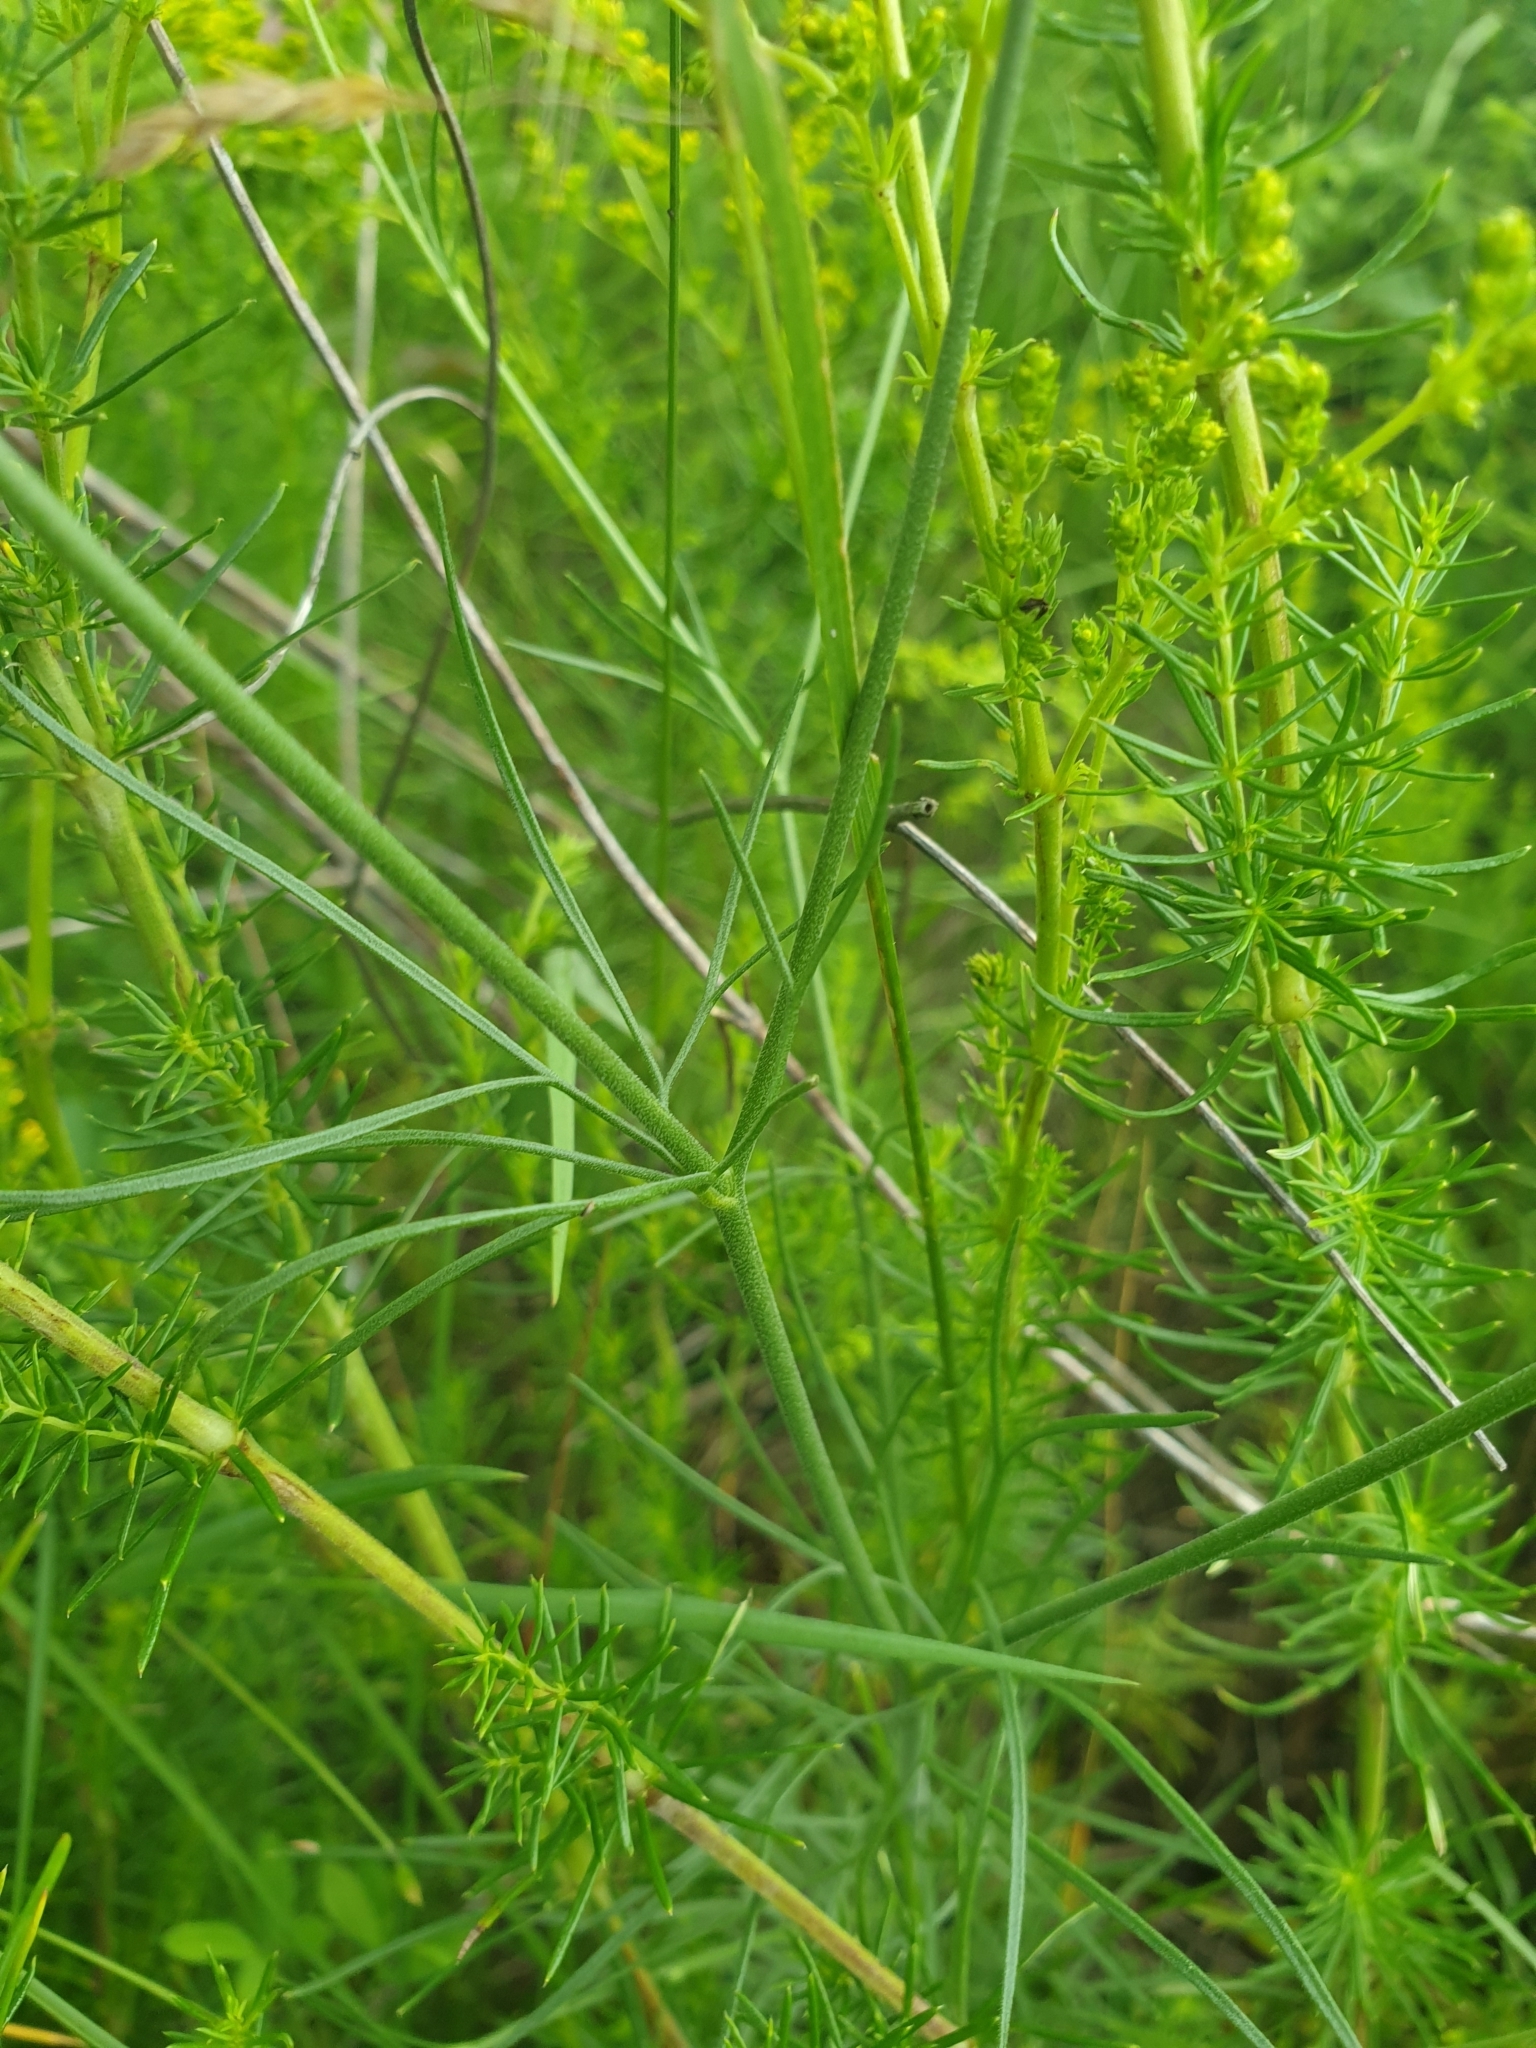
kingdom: Plantae
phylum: Tracheophyta
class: Magnoliopsida
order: Ranunculales
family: Ranunculaceae
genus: Delphinium
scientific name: Delphinium consolida
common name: Branching larkspur
